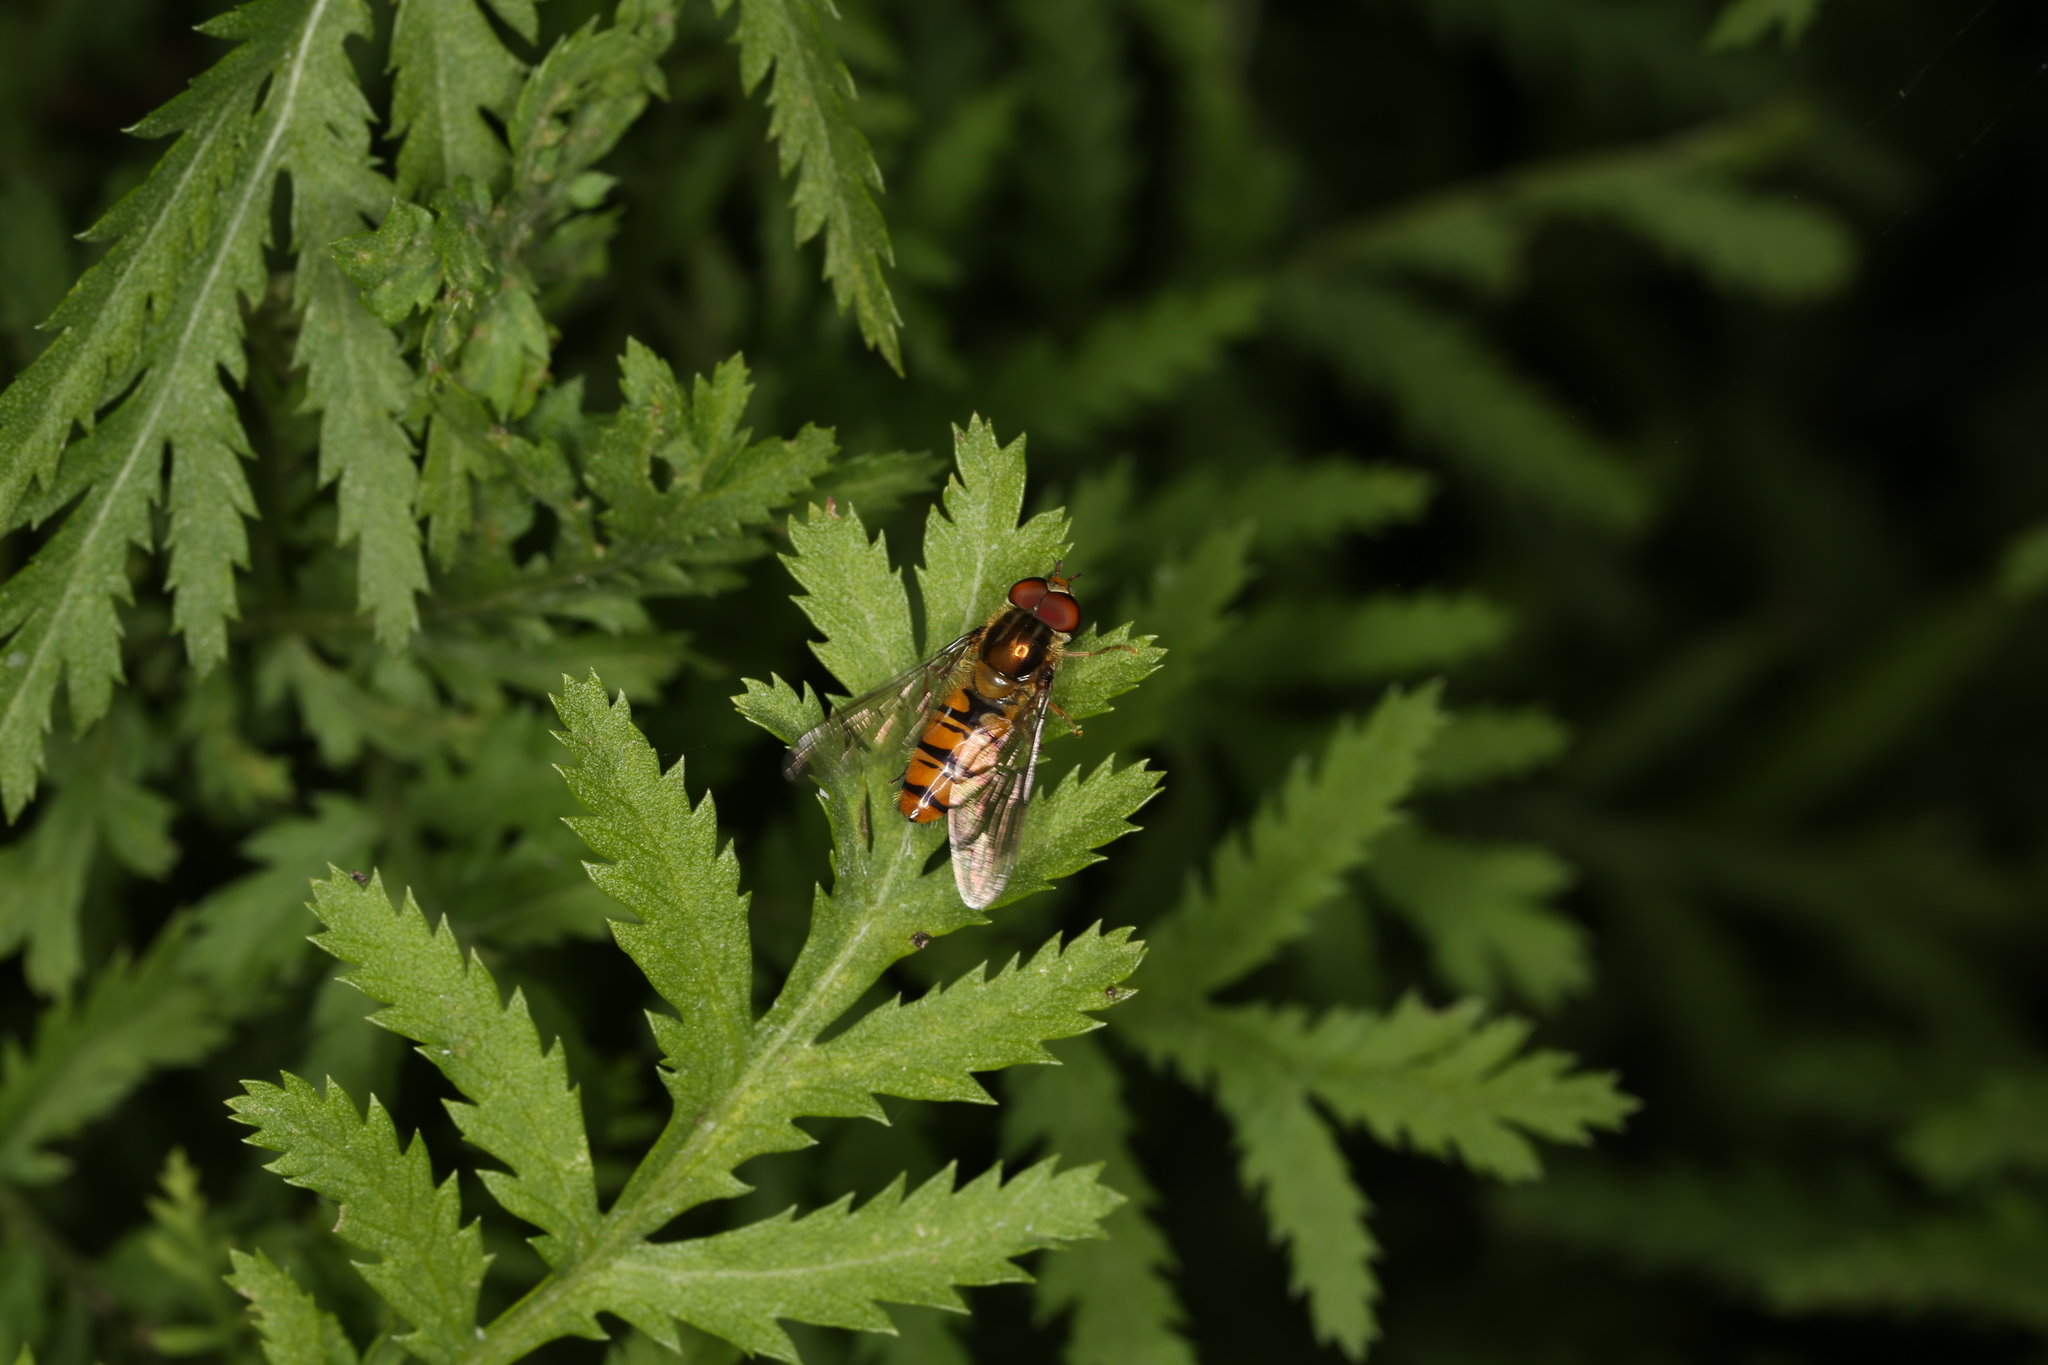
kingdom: Animalia
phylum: Arthropoda
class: Insecta
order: Diptera
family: Syrphidae
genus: Episyrphus
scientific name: Episyrphus balteatus
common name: Marmalade hoverfly
